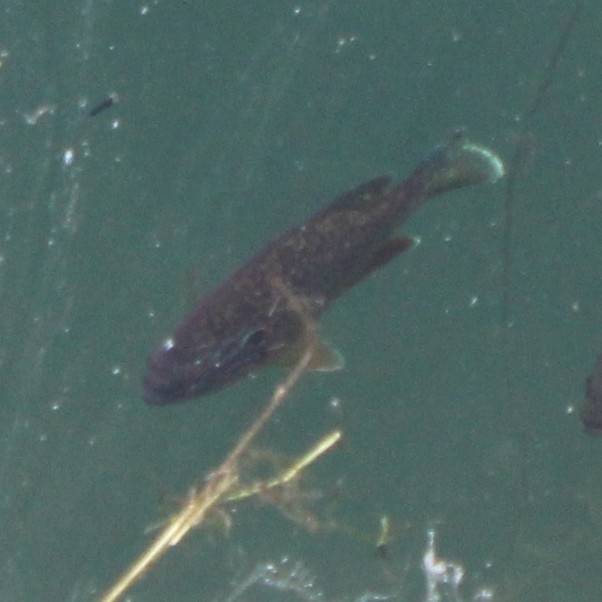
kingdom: Animalia
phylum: Chordata
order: Perciformes
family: Centrarchidae
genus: Lepomis
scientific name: Lepomis gibbosus
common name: Pumpkinseed
